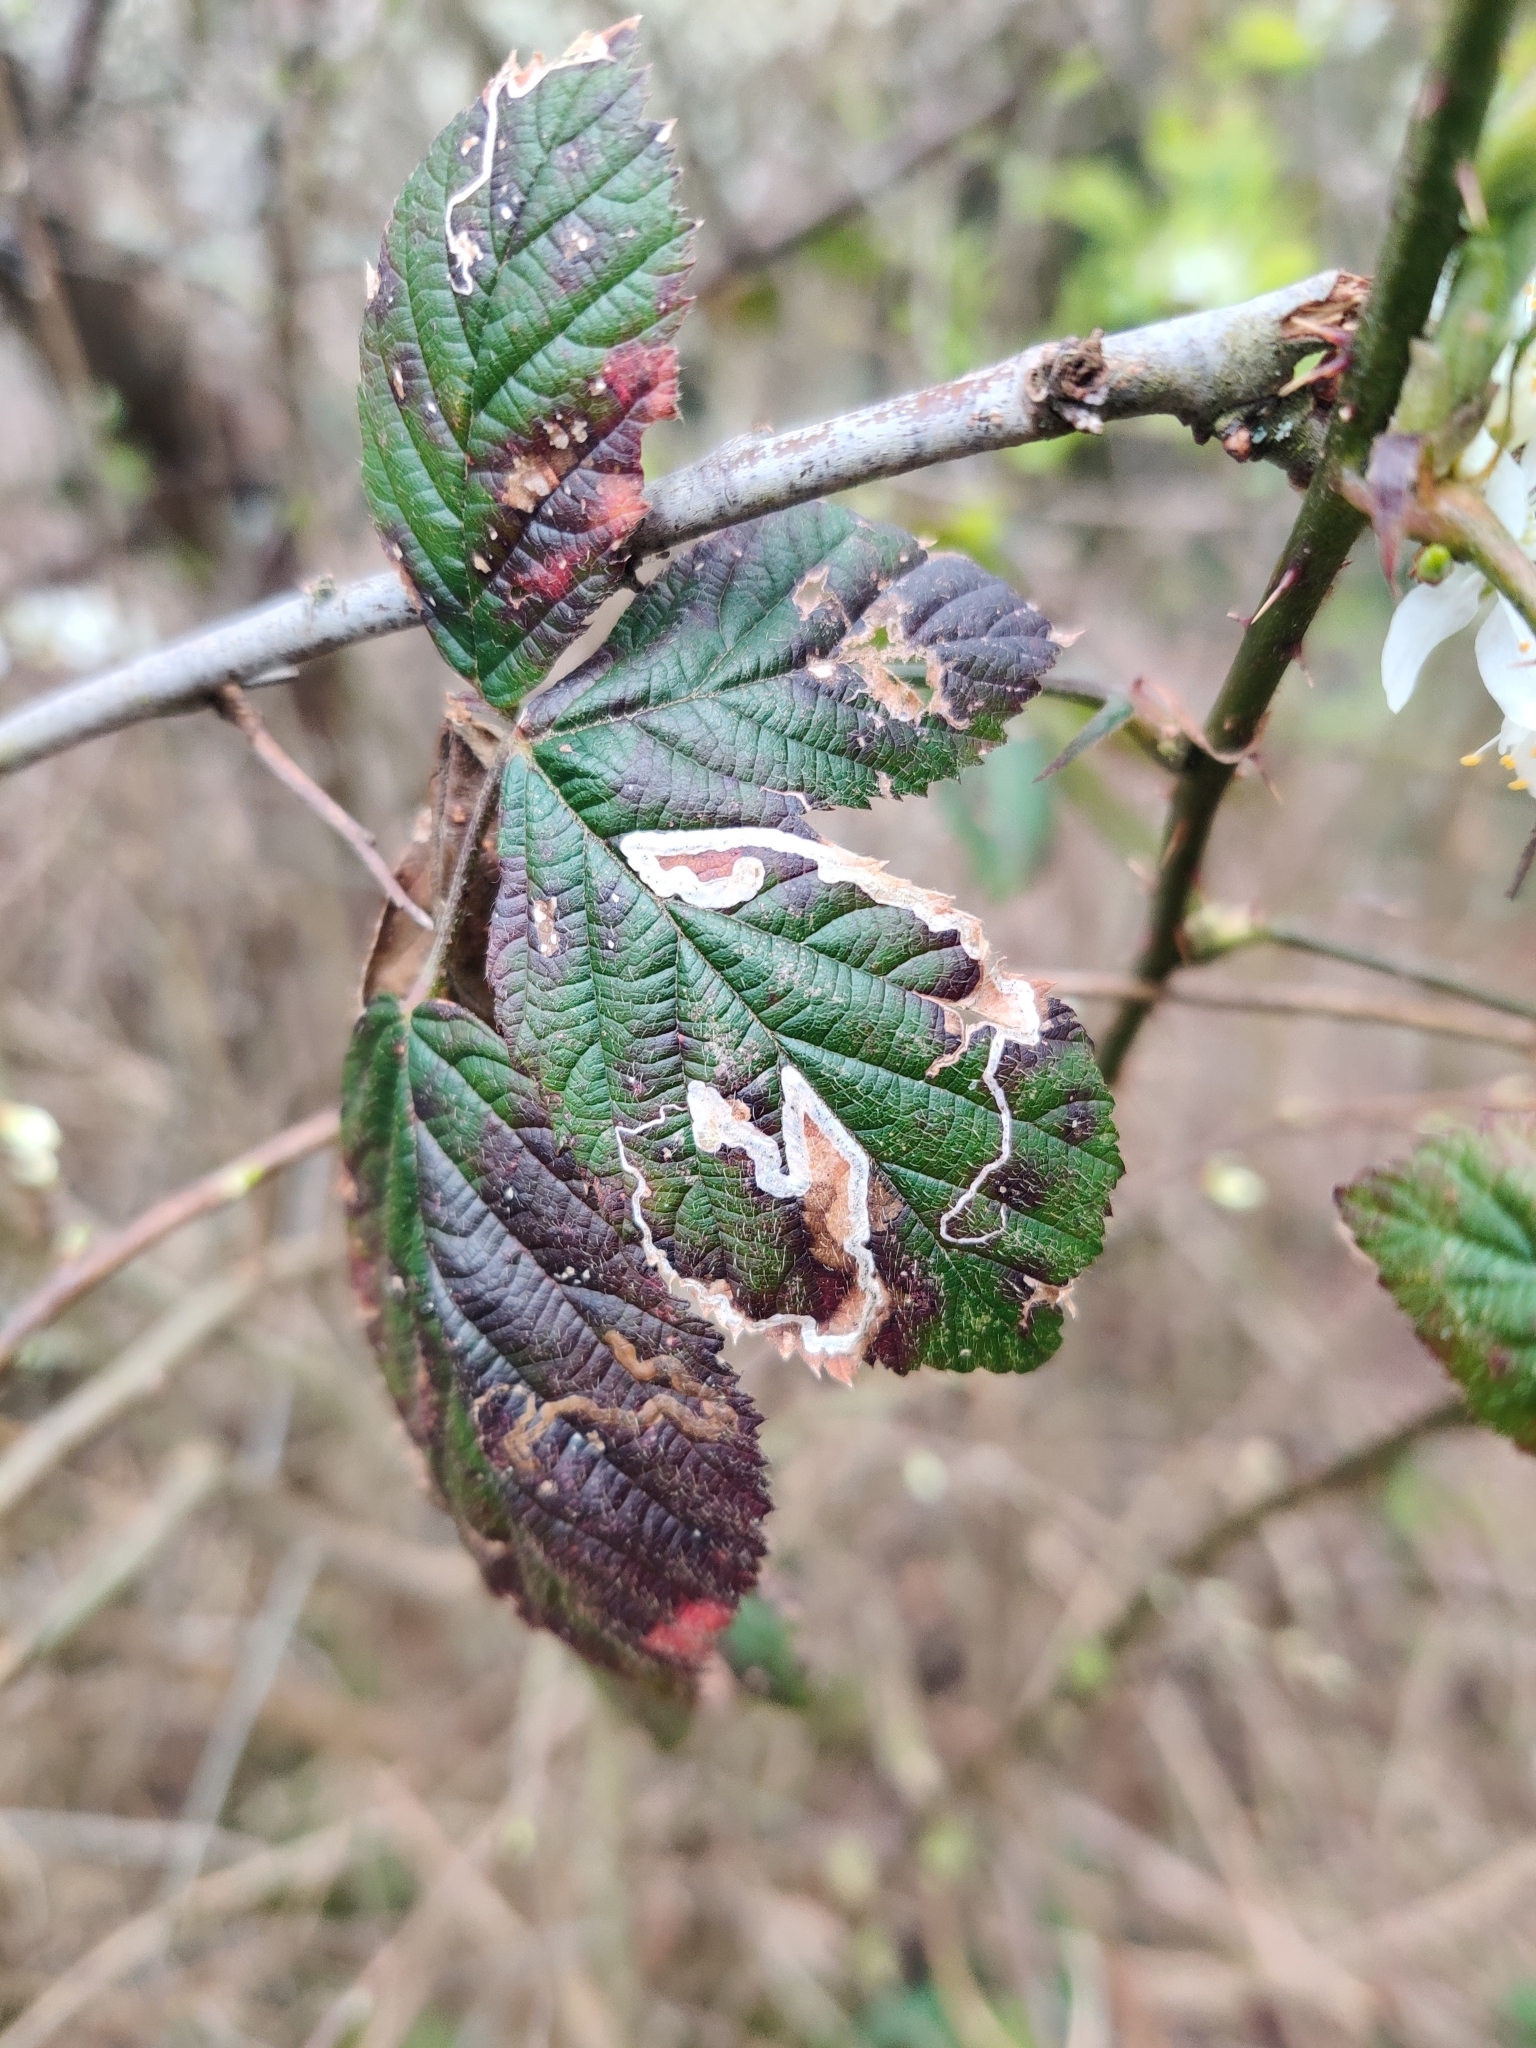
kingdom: Animalia
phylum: Arthropoda
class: Insecta
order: Lepidoptera
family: Nepticulidae
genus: Stigmella
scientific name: Stigmella aurella
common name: Golden pigmy
